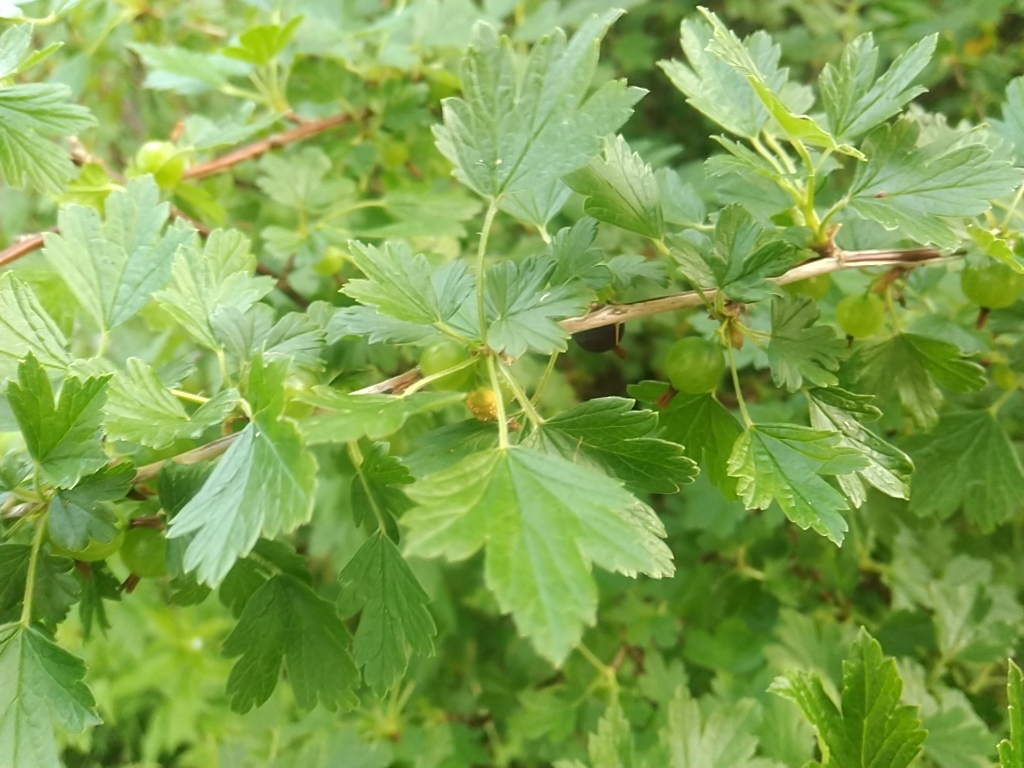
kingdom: Plantae
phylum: Tracheophyta
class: Magnoliopsida
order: Saxifragales
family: Grossulariaceae
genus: Ribes
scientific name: Ribes hirtellum
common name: Hairy gooseberry
